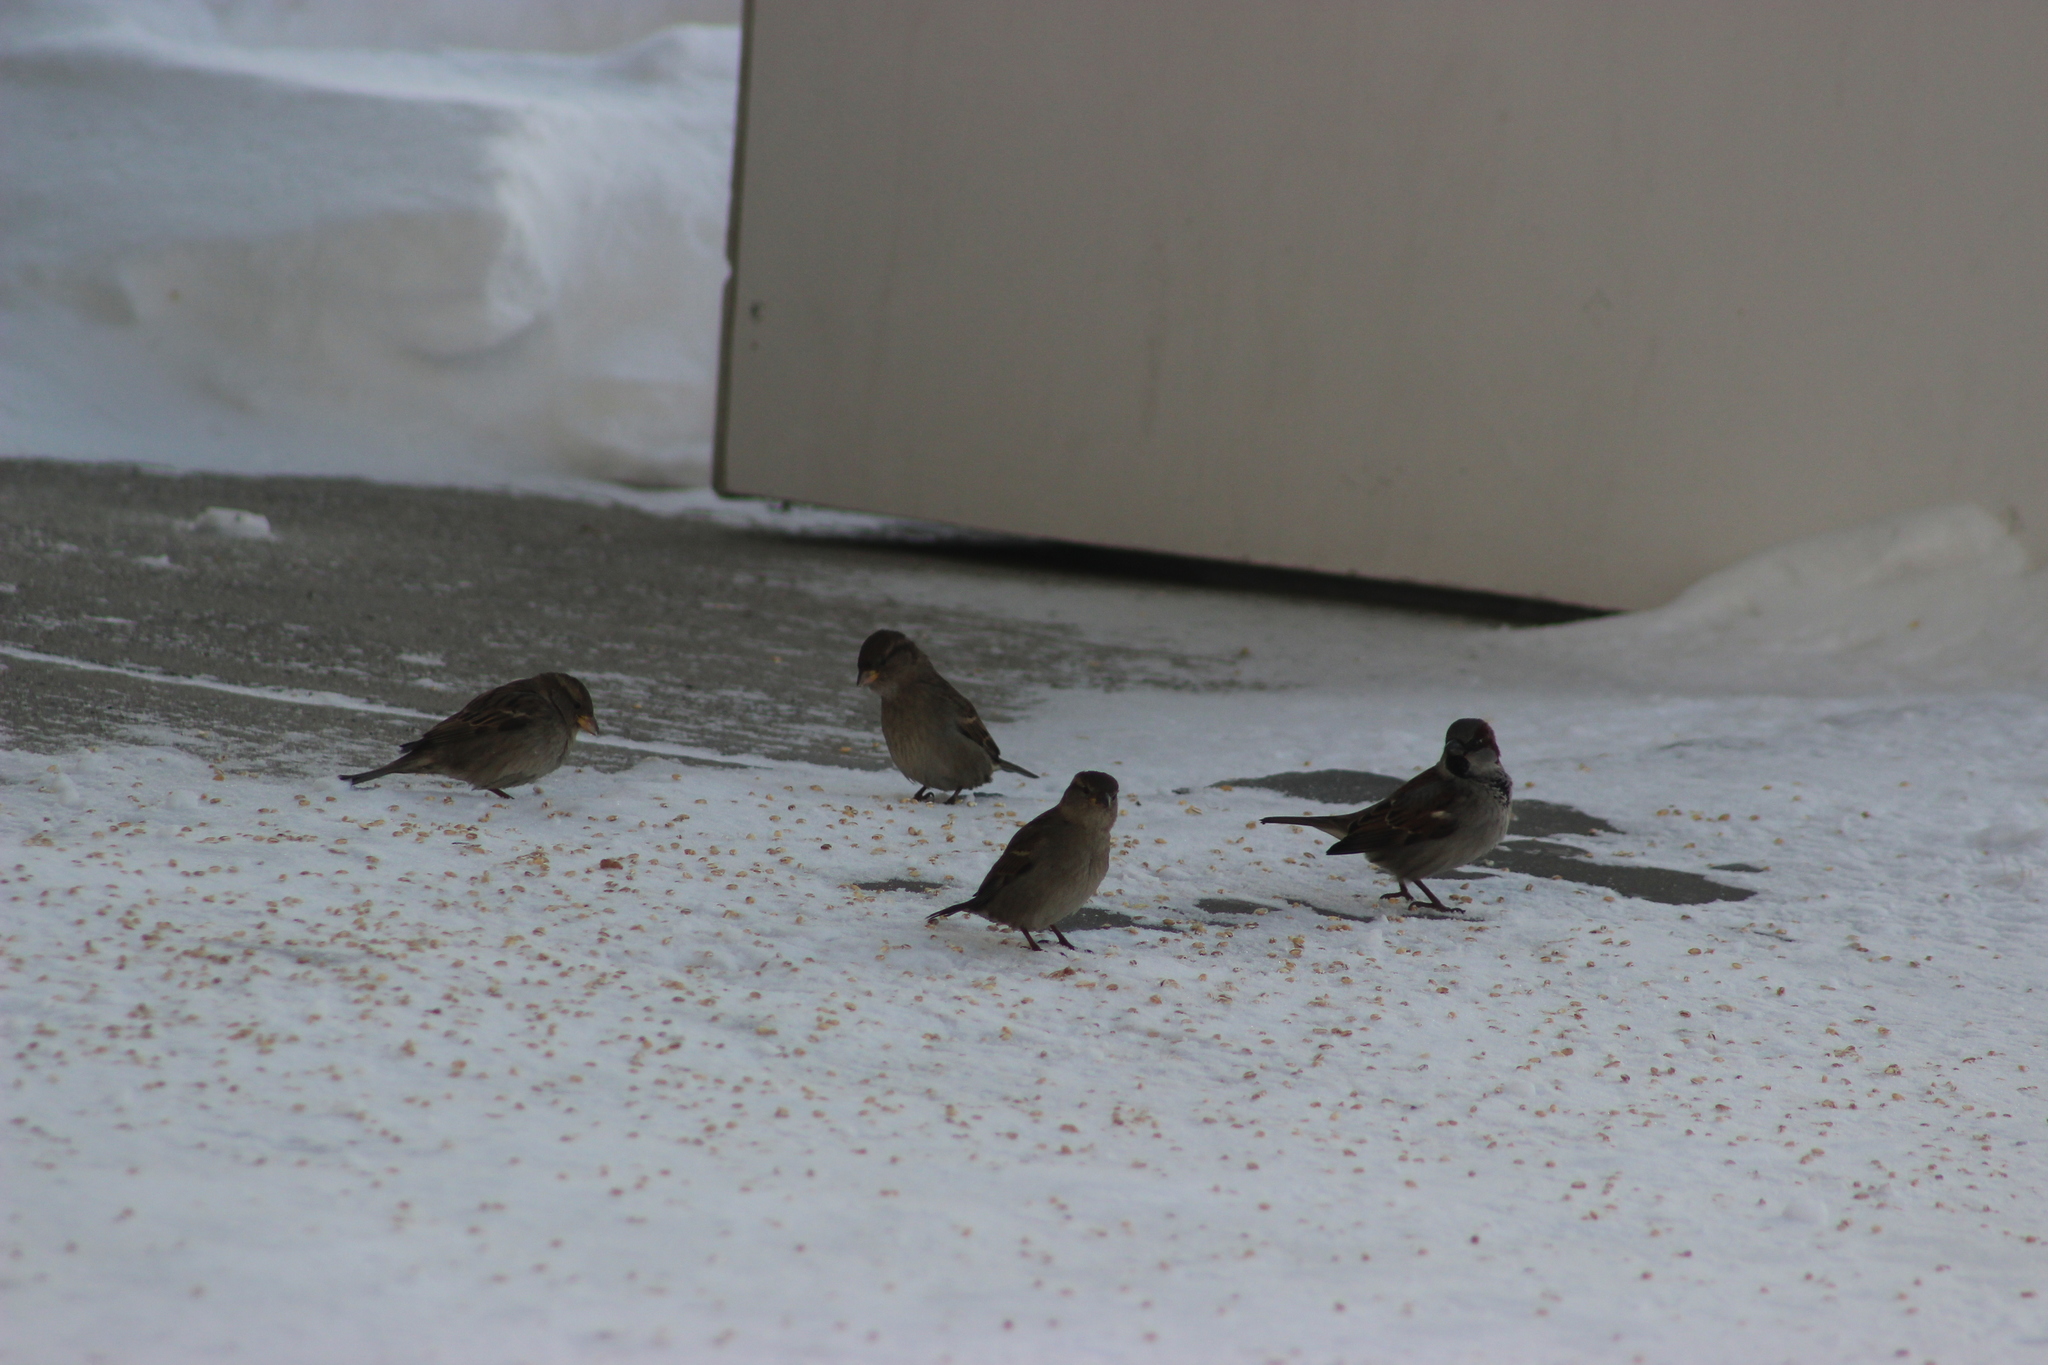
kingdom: Animalia
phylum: Chordata
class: Aves
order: Passeriformes
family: Passeridae
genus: Passer
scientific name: Passer domesticus
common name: House sparrow
